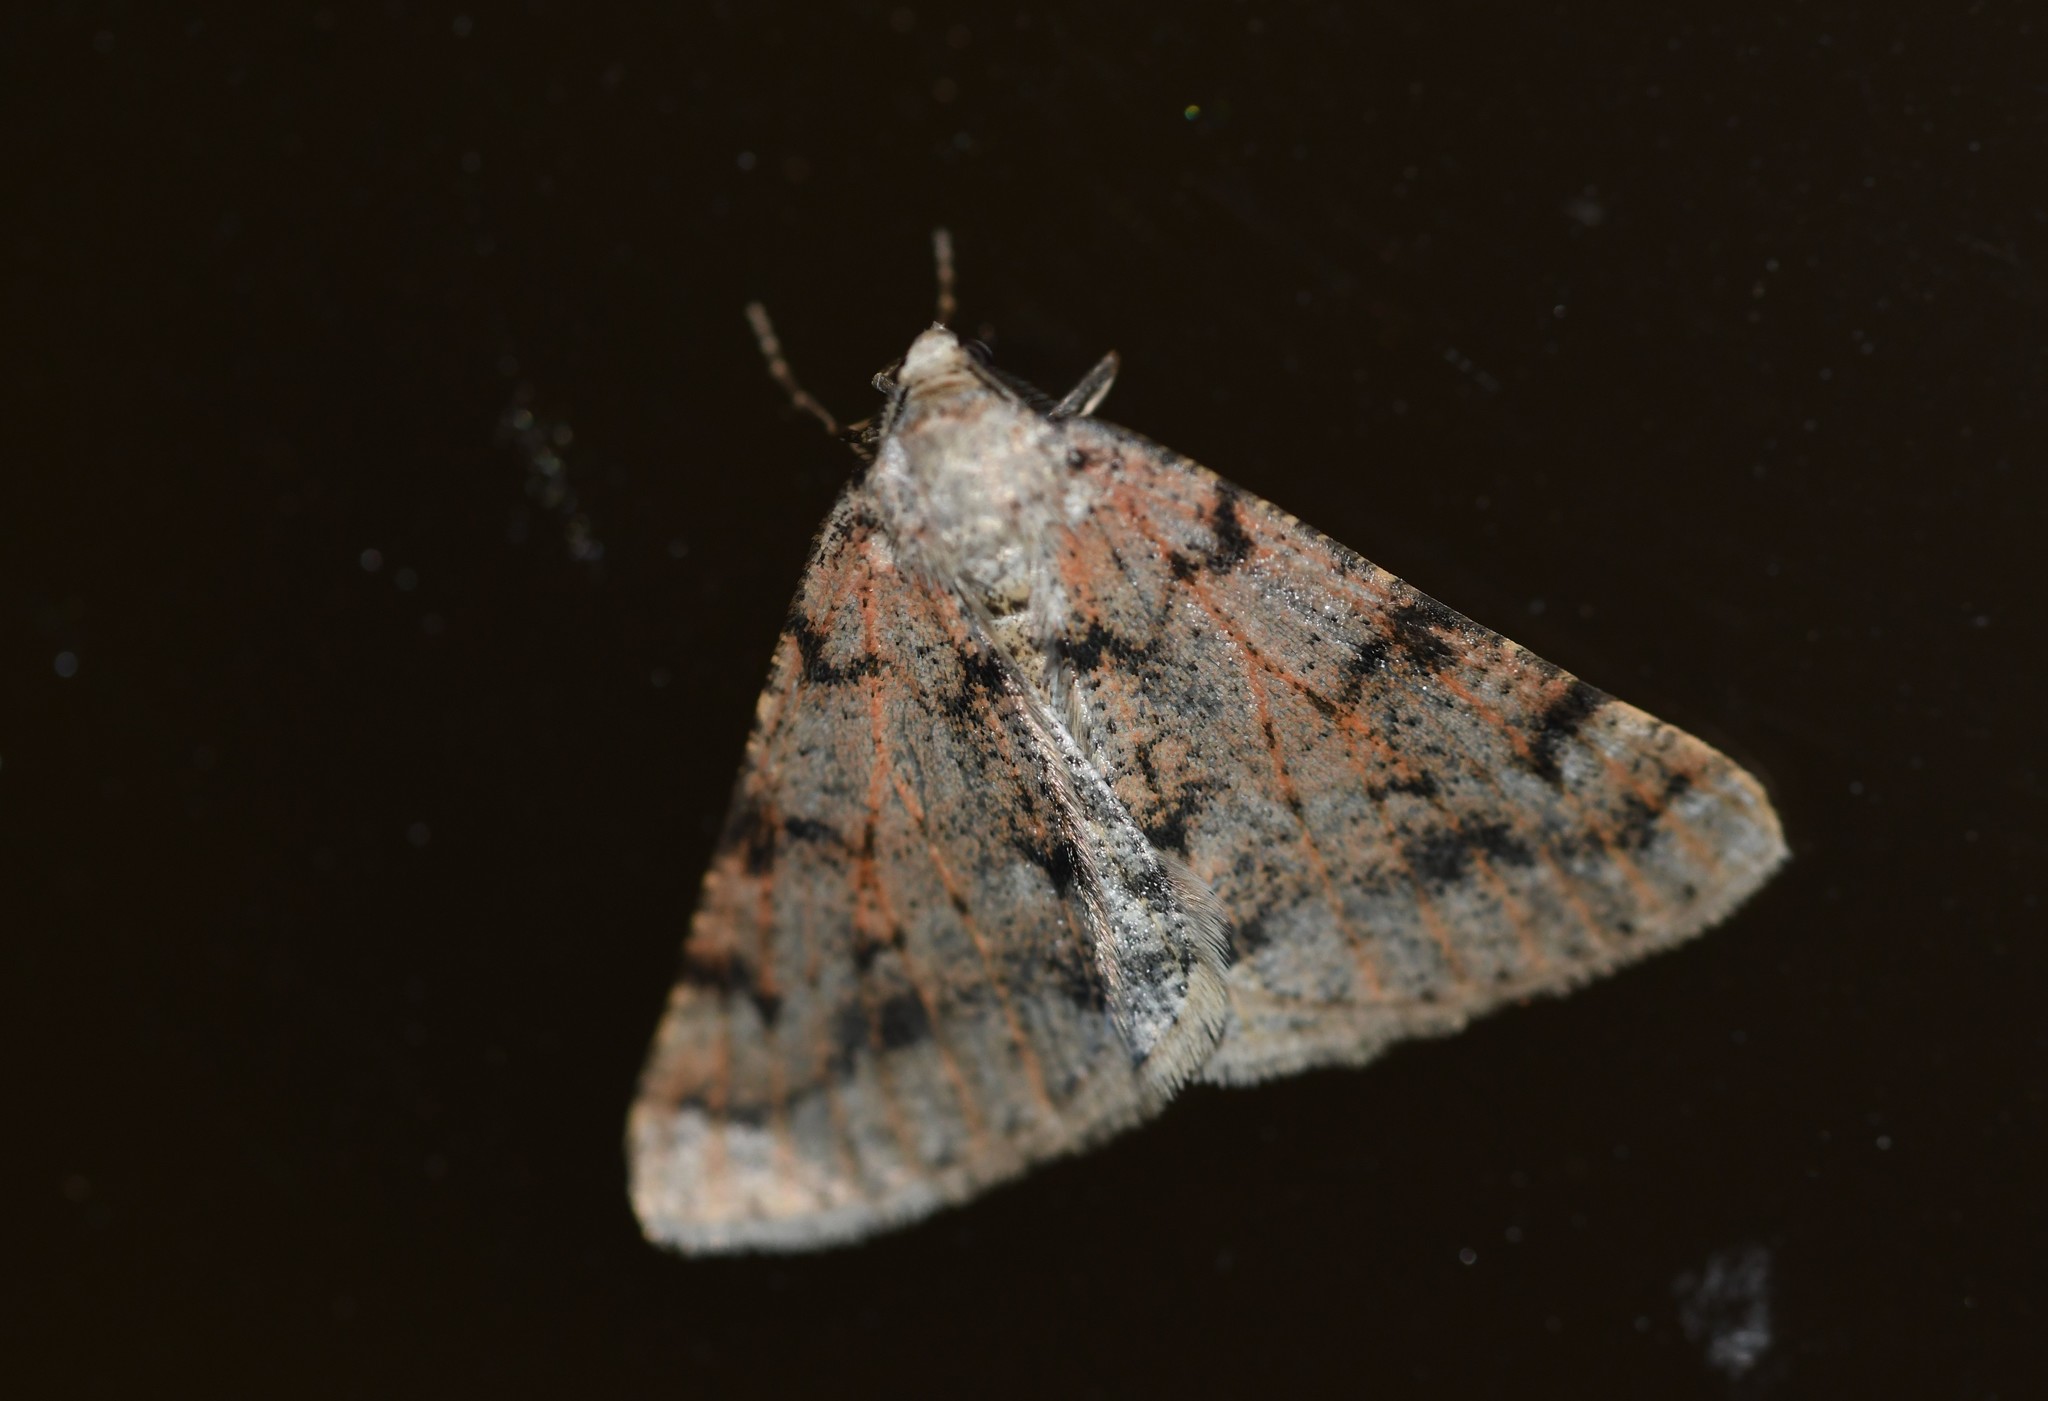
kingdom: Animalia
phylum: Arthropoda
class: Insecta
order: Lepidoptera
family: Geometridae
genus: Isturgia
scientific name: Isturgia miniosaria
